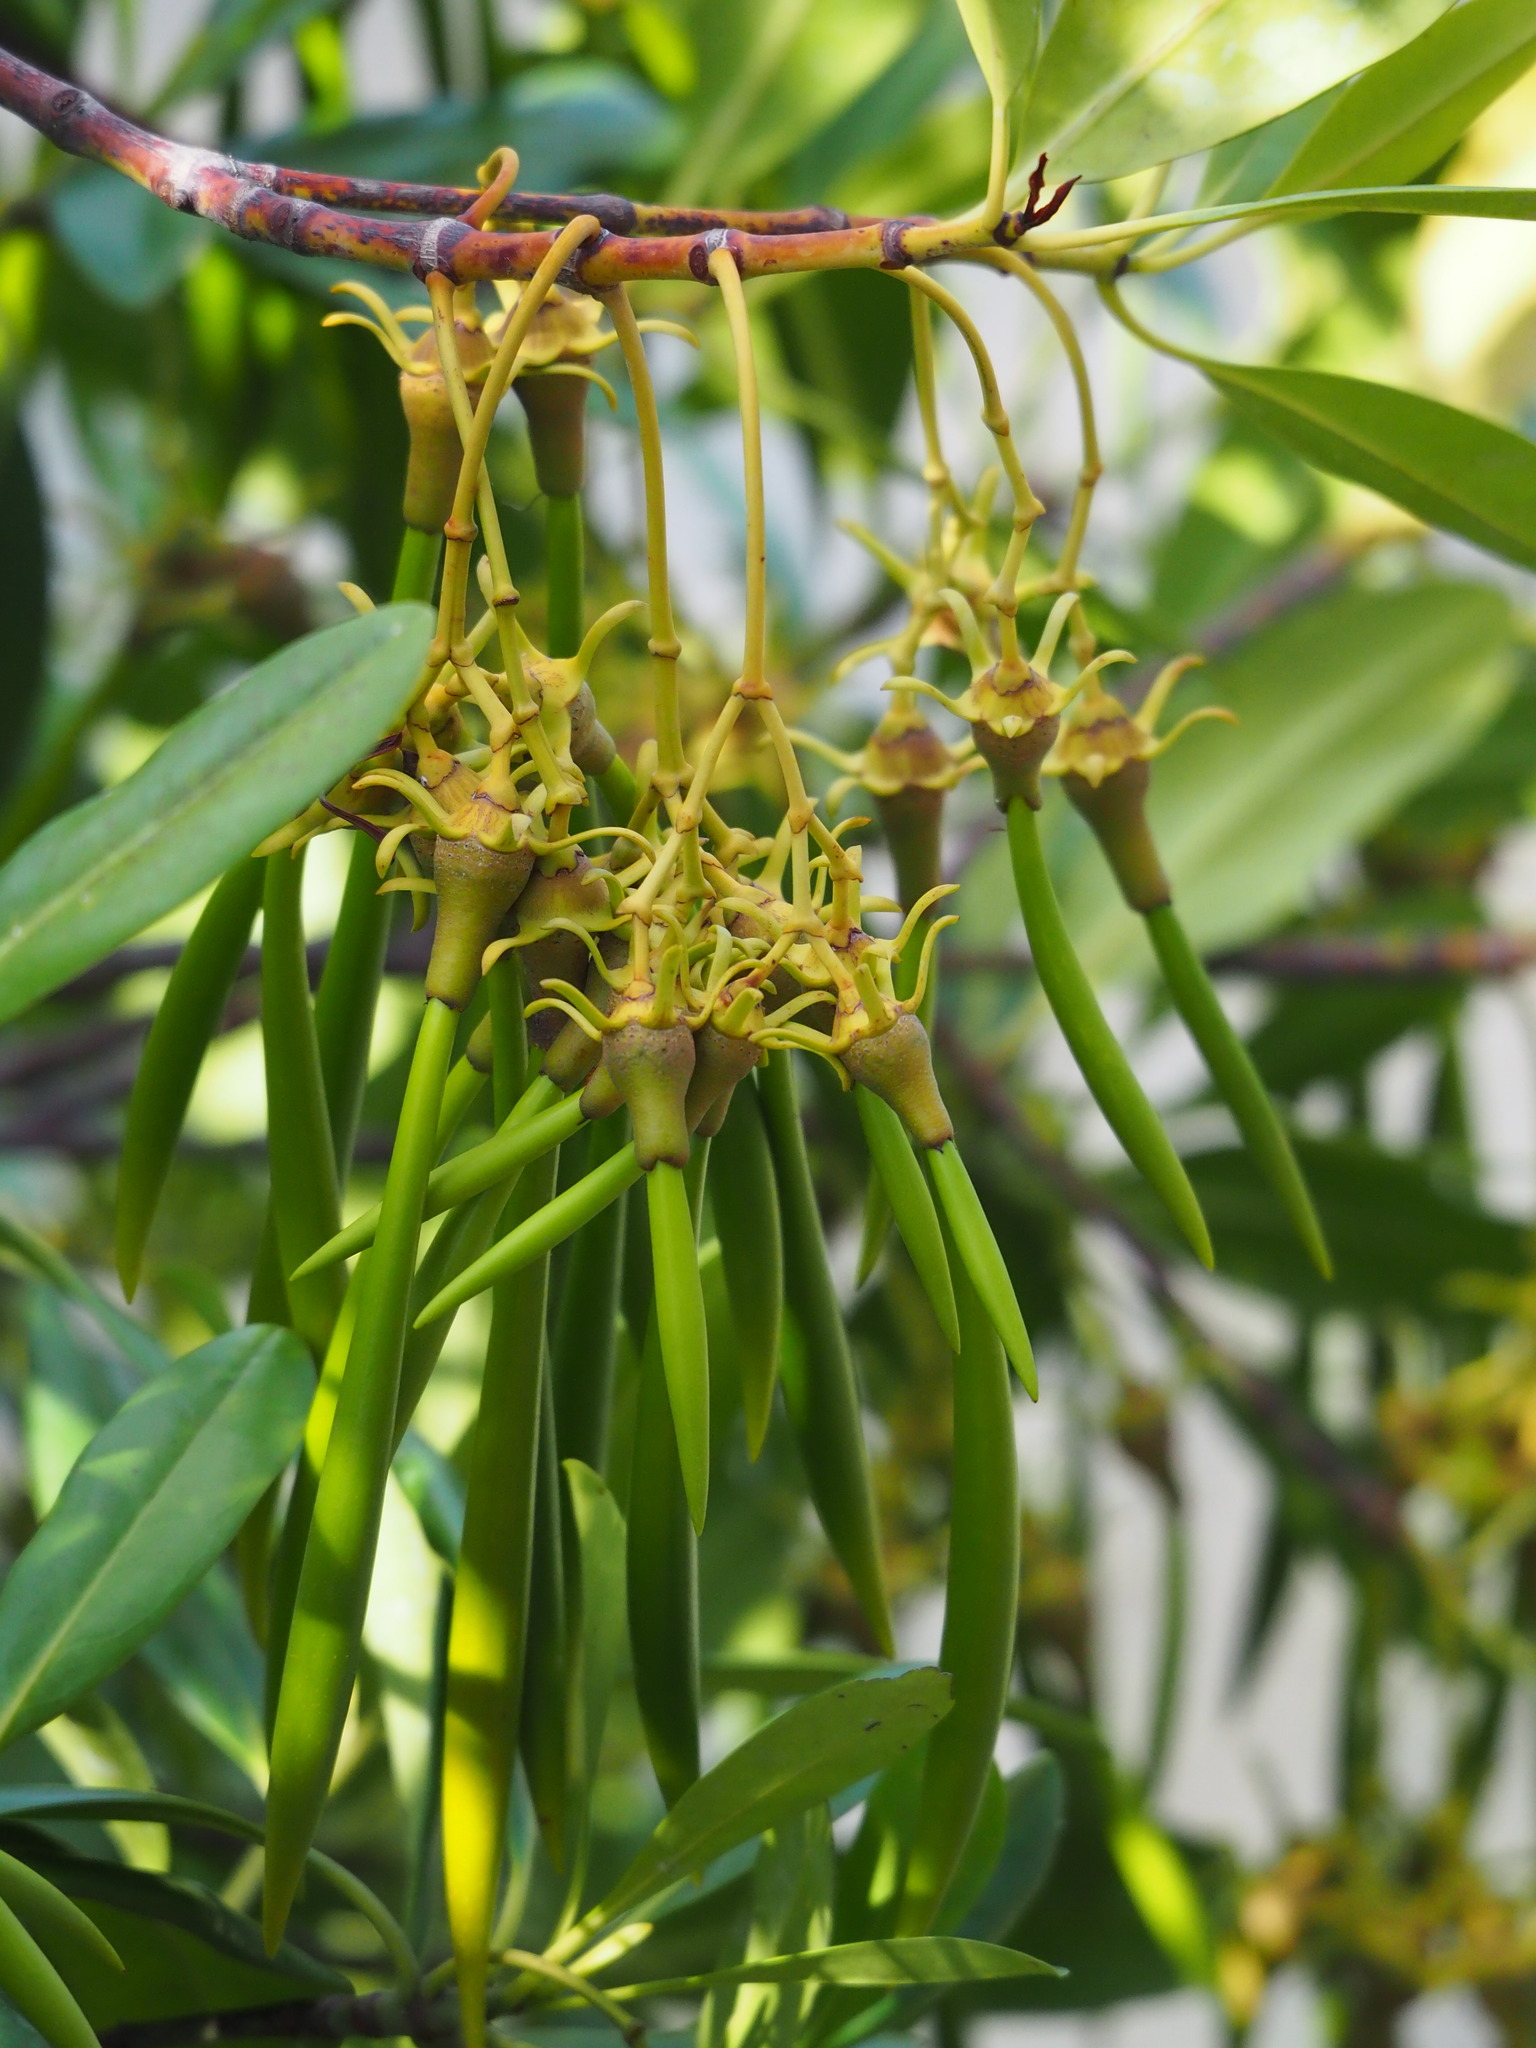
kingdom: Plantae
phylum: Tracheophyta
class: Magnoliopsida
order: Malpighiales
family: Rhizophoraceae
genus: Kandelia
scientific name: Kandelia obovata
